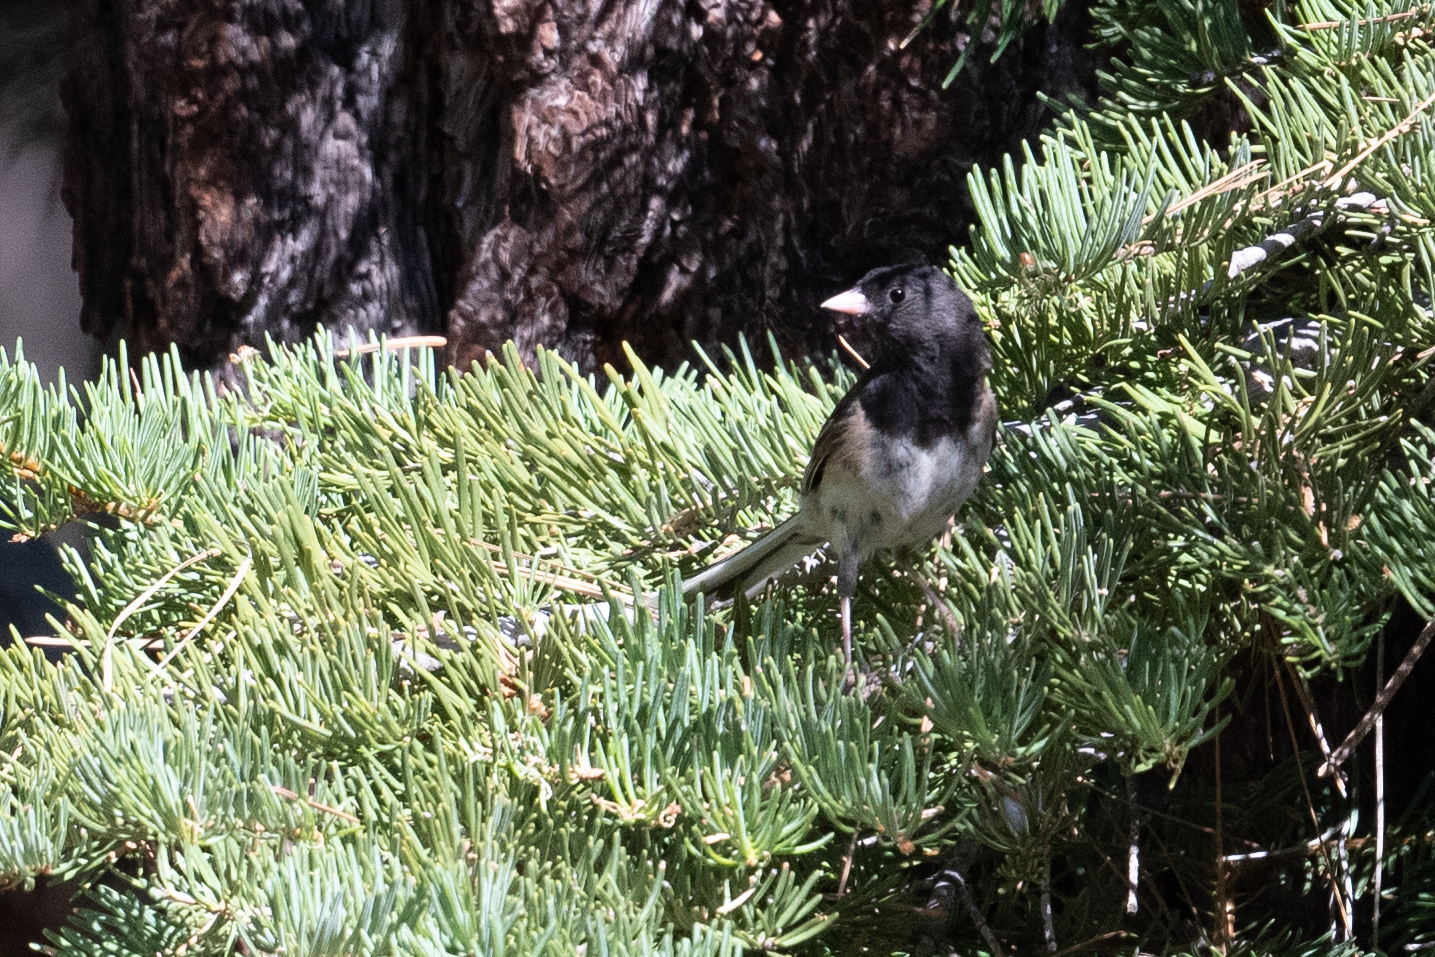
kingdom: Animalia
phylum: Chordata
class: Aves
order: Passeriformes
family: Passerellidae
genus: Junco
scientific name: Junco hyemalis
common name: Dark-eyed junco
